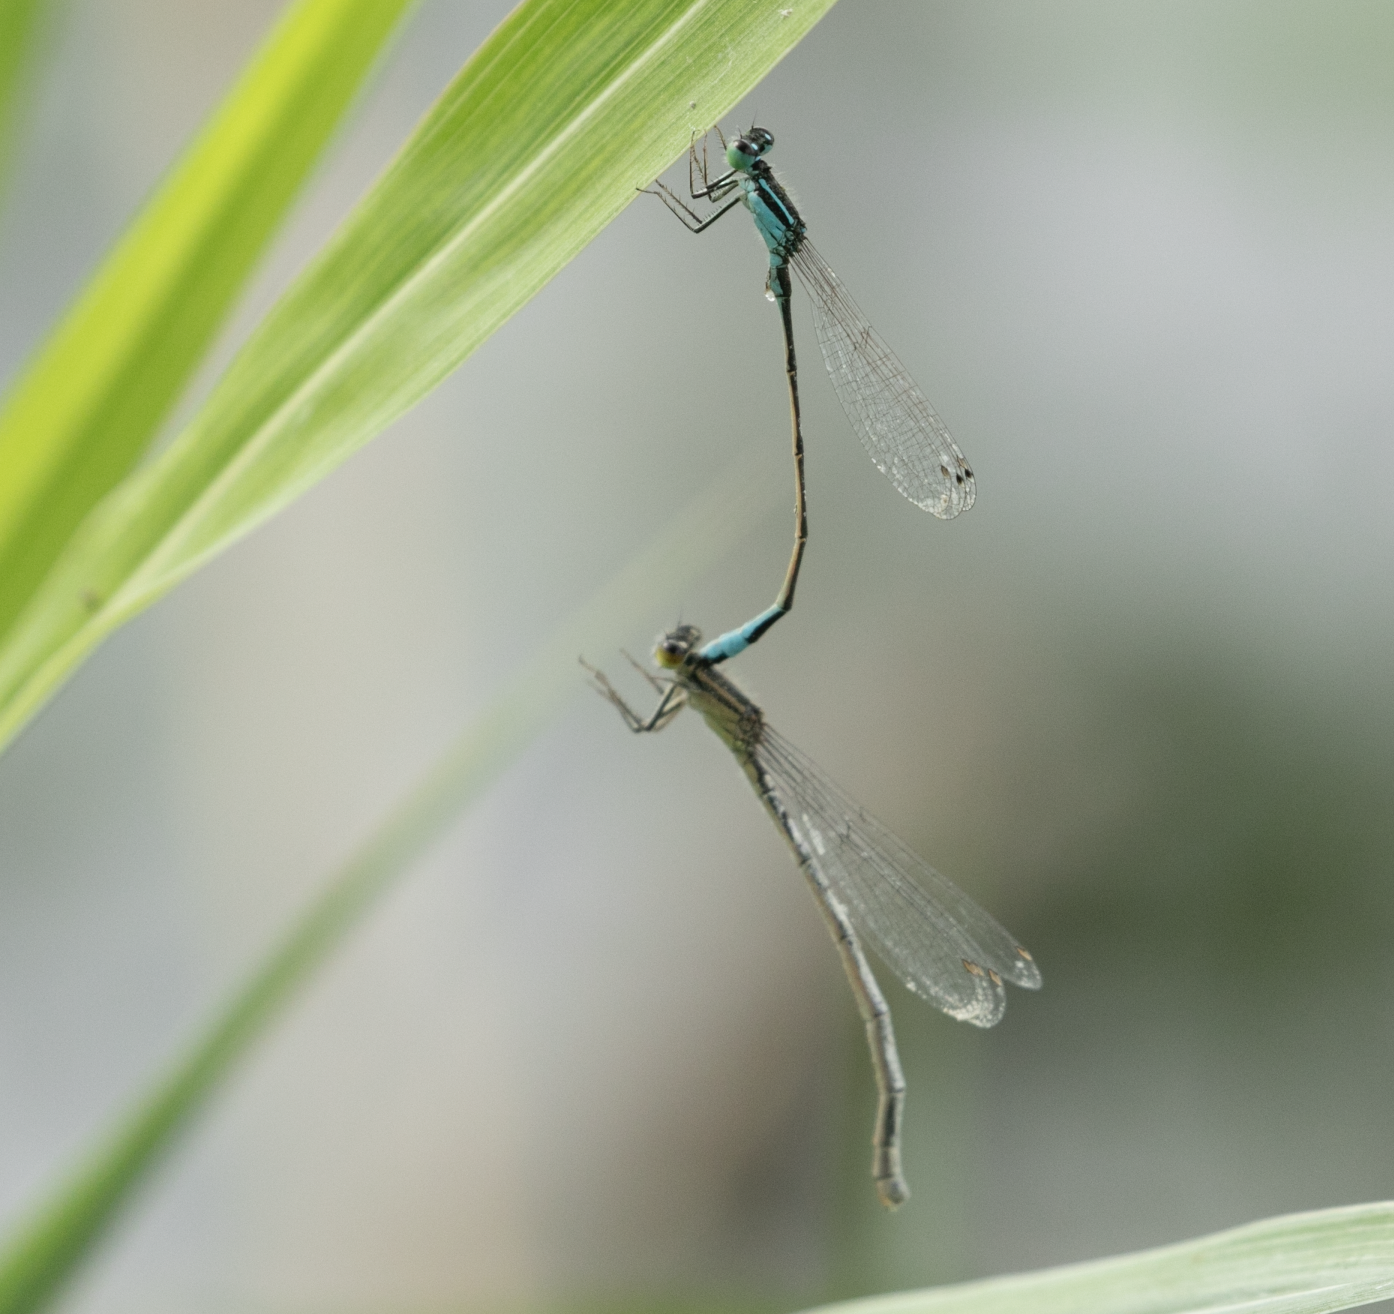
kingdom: Animalia
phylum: Arthropoda
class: Insecta
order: Odonata
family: Coenagrionidae
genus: Ischnura
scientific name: Ischnura elegans
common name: Blue-tailed damselfly
